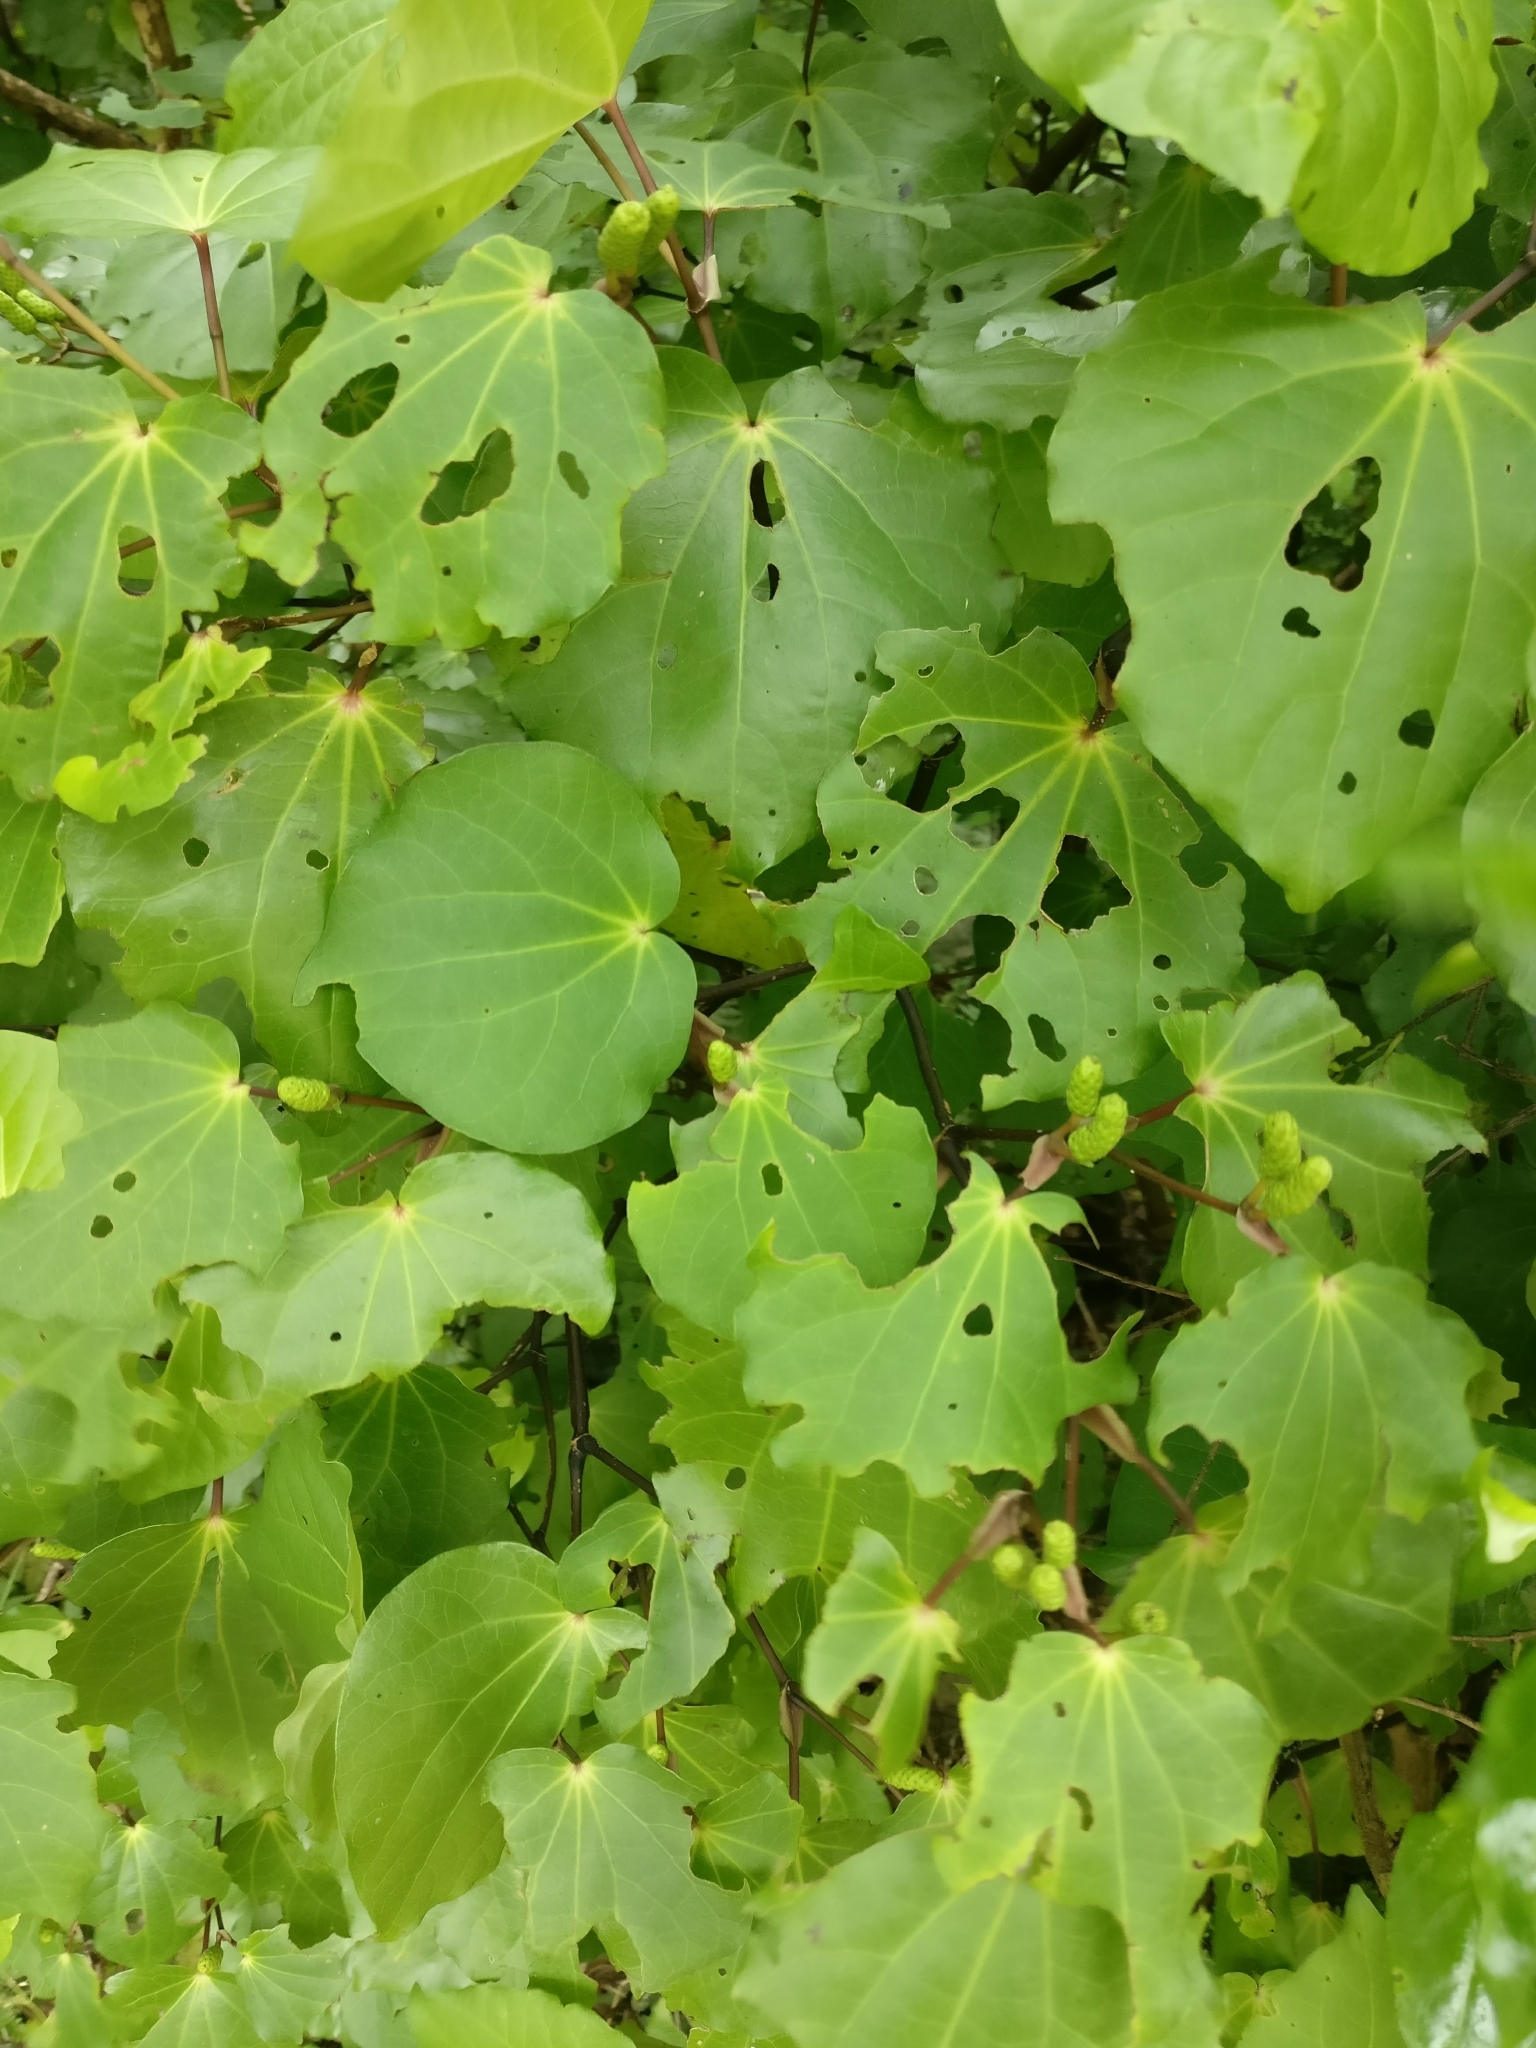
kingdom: Plantae
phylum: Tracheophyta
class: Magnoliopsida
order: Piperales
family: Piperaceae
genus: Macropiper
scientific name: Macropiper excelsum
